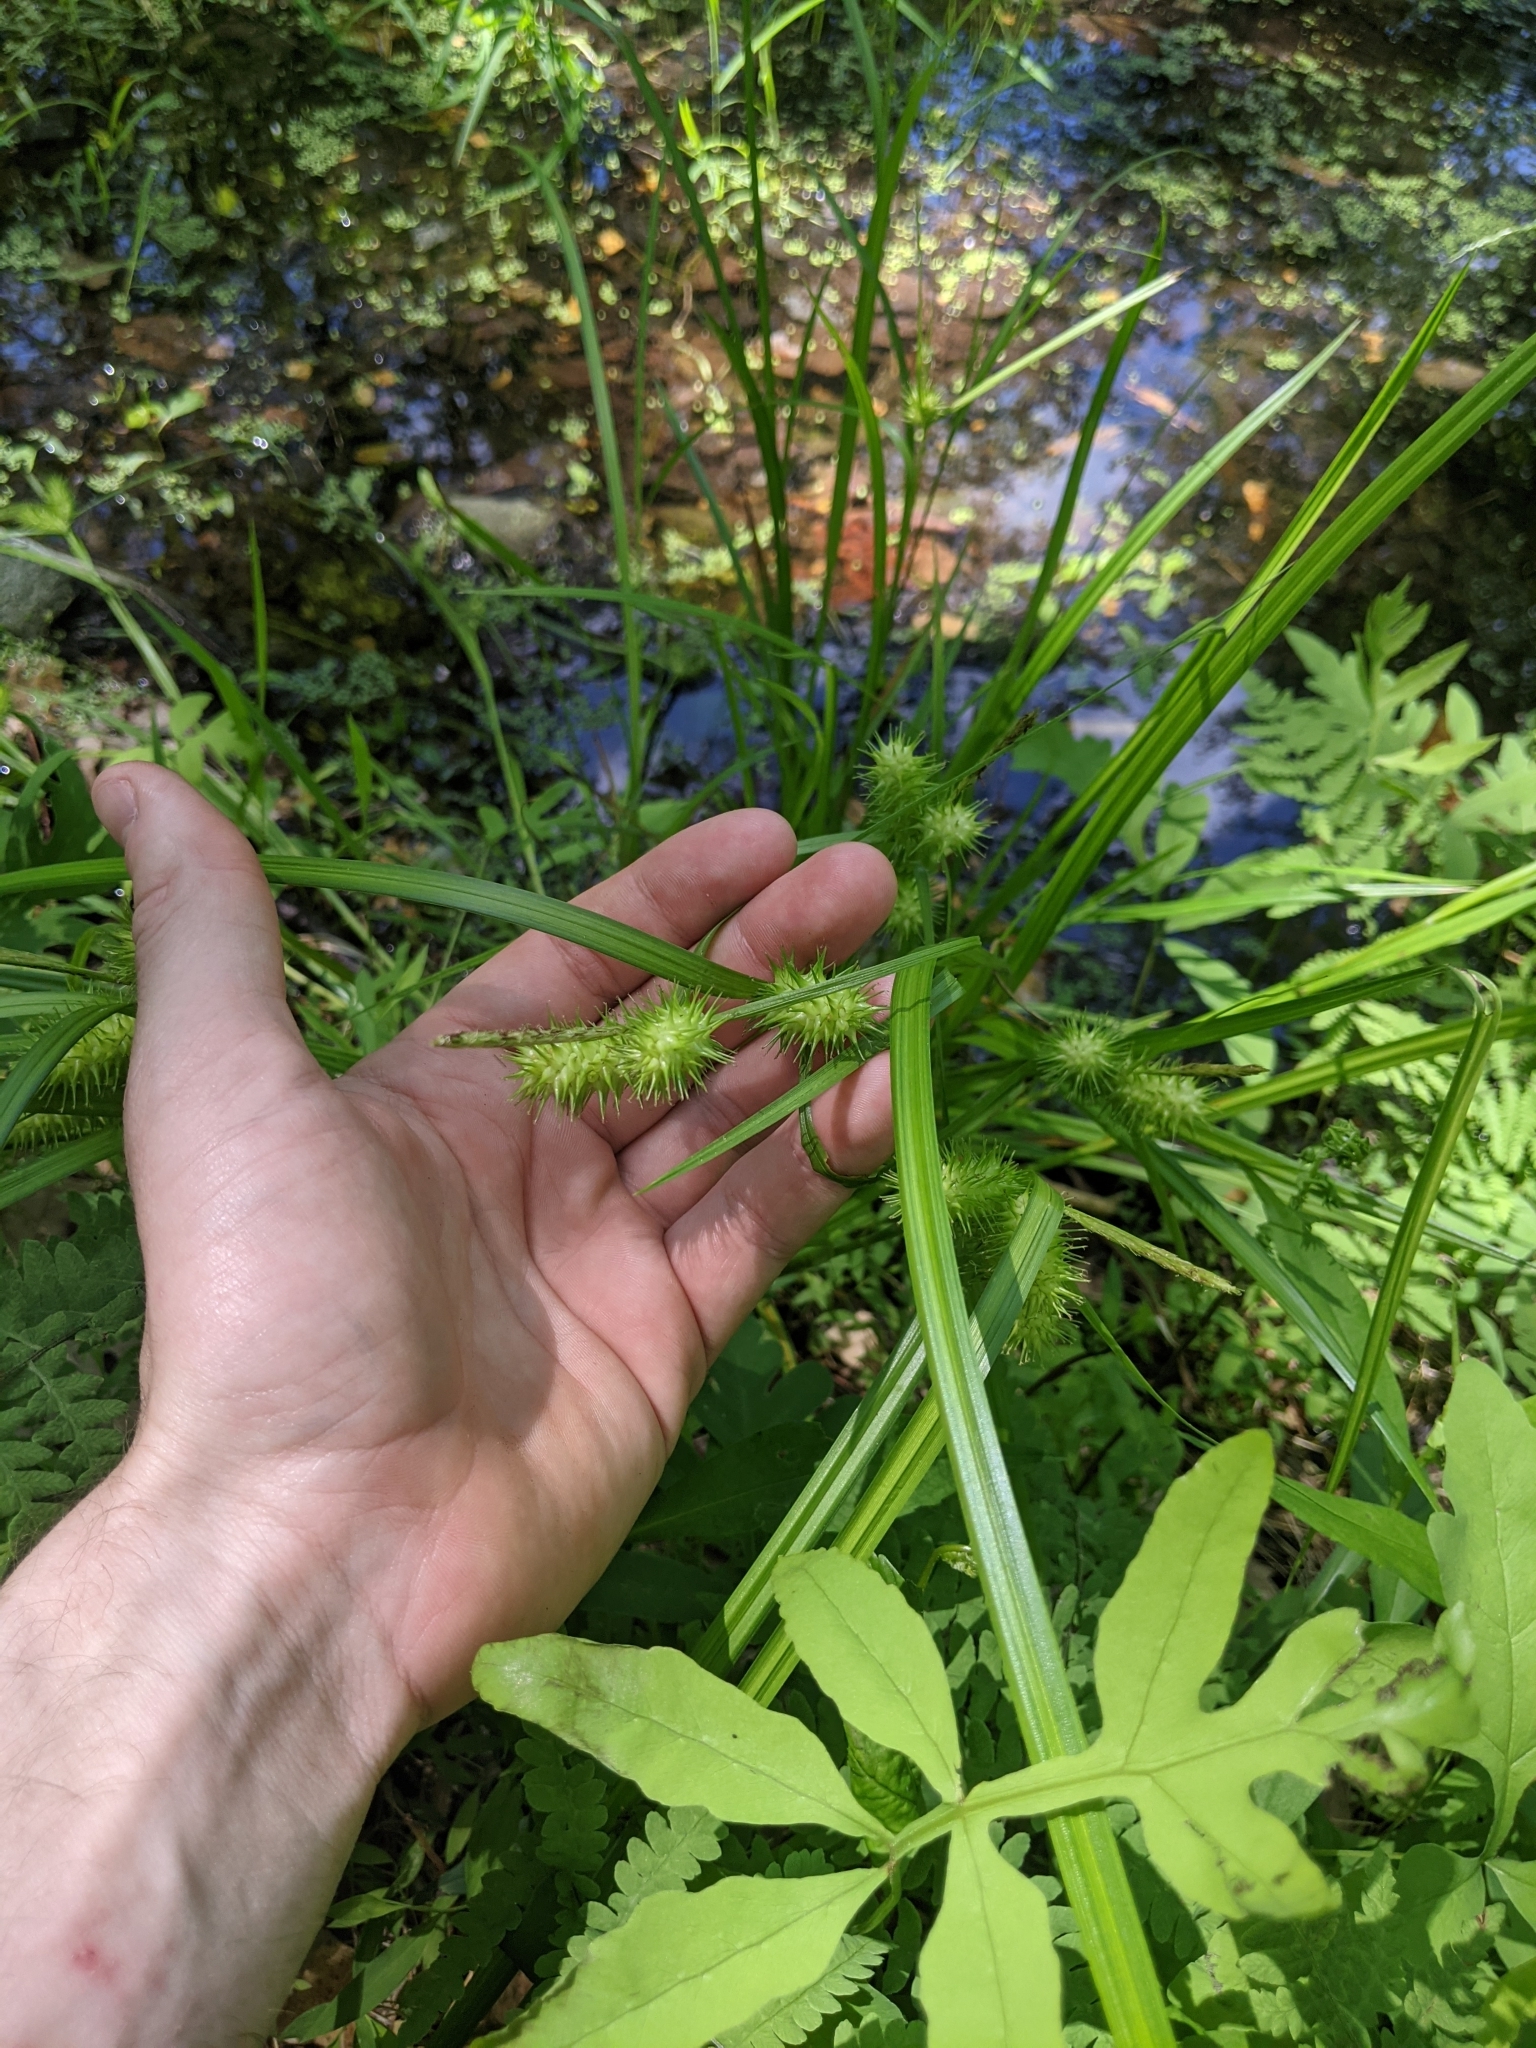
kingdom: Plantae
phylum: Tracheophyta
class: Liliopsida
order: Poales
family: Cyperaceae
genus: Carex
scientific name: Carex lurida
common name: Sallow sedge
